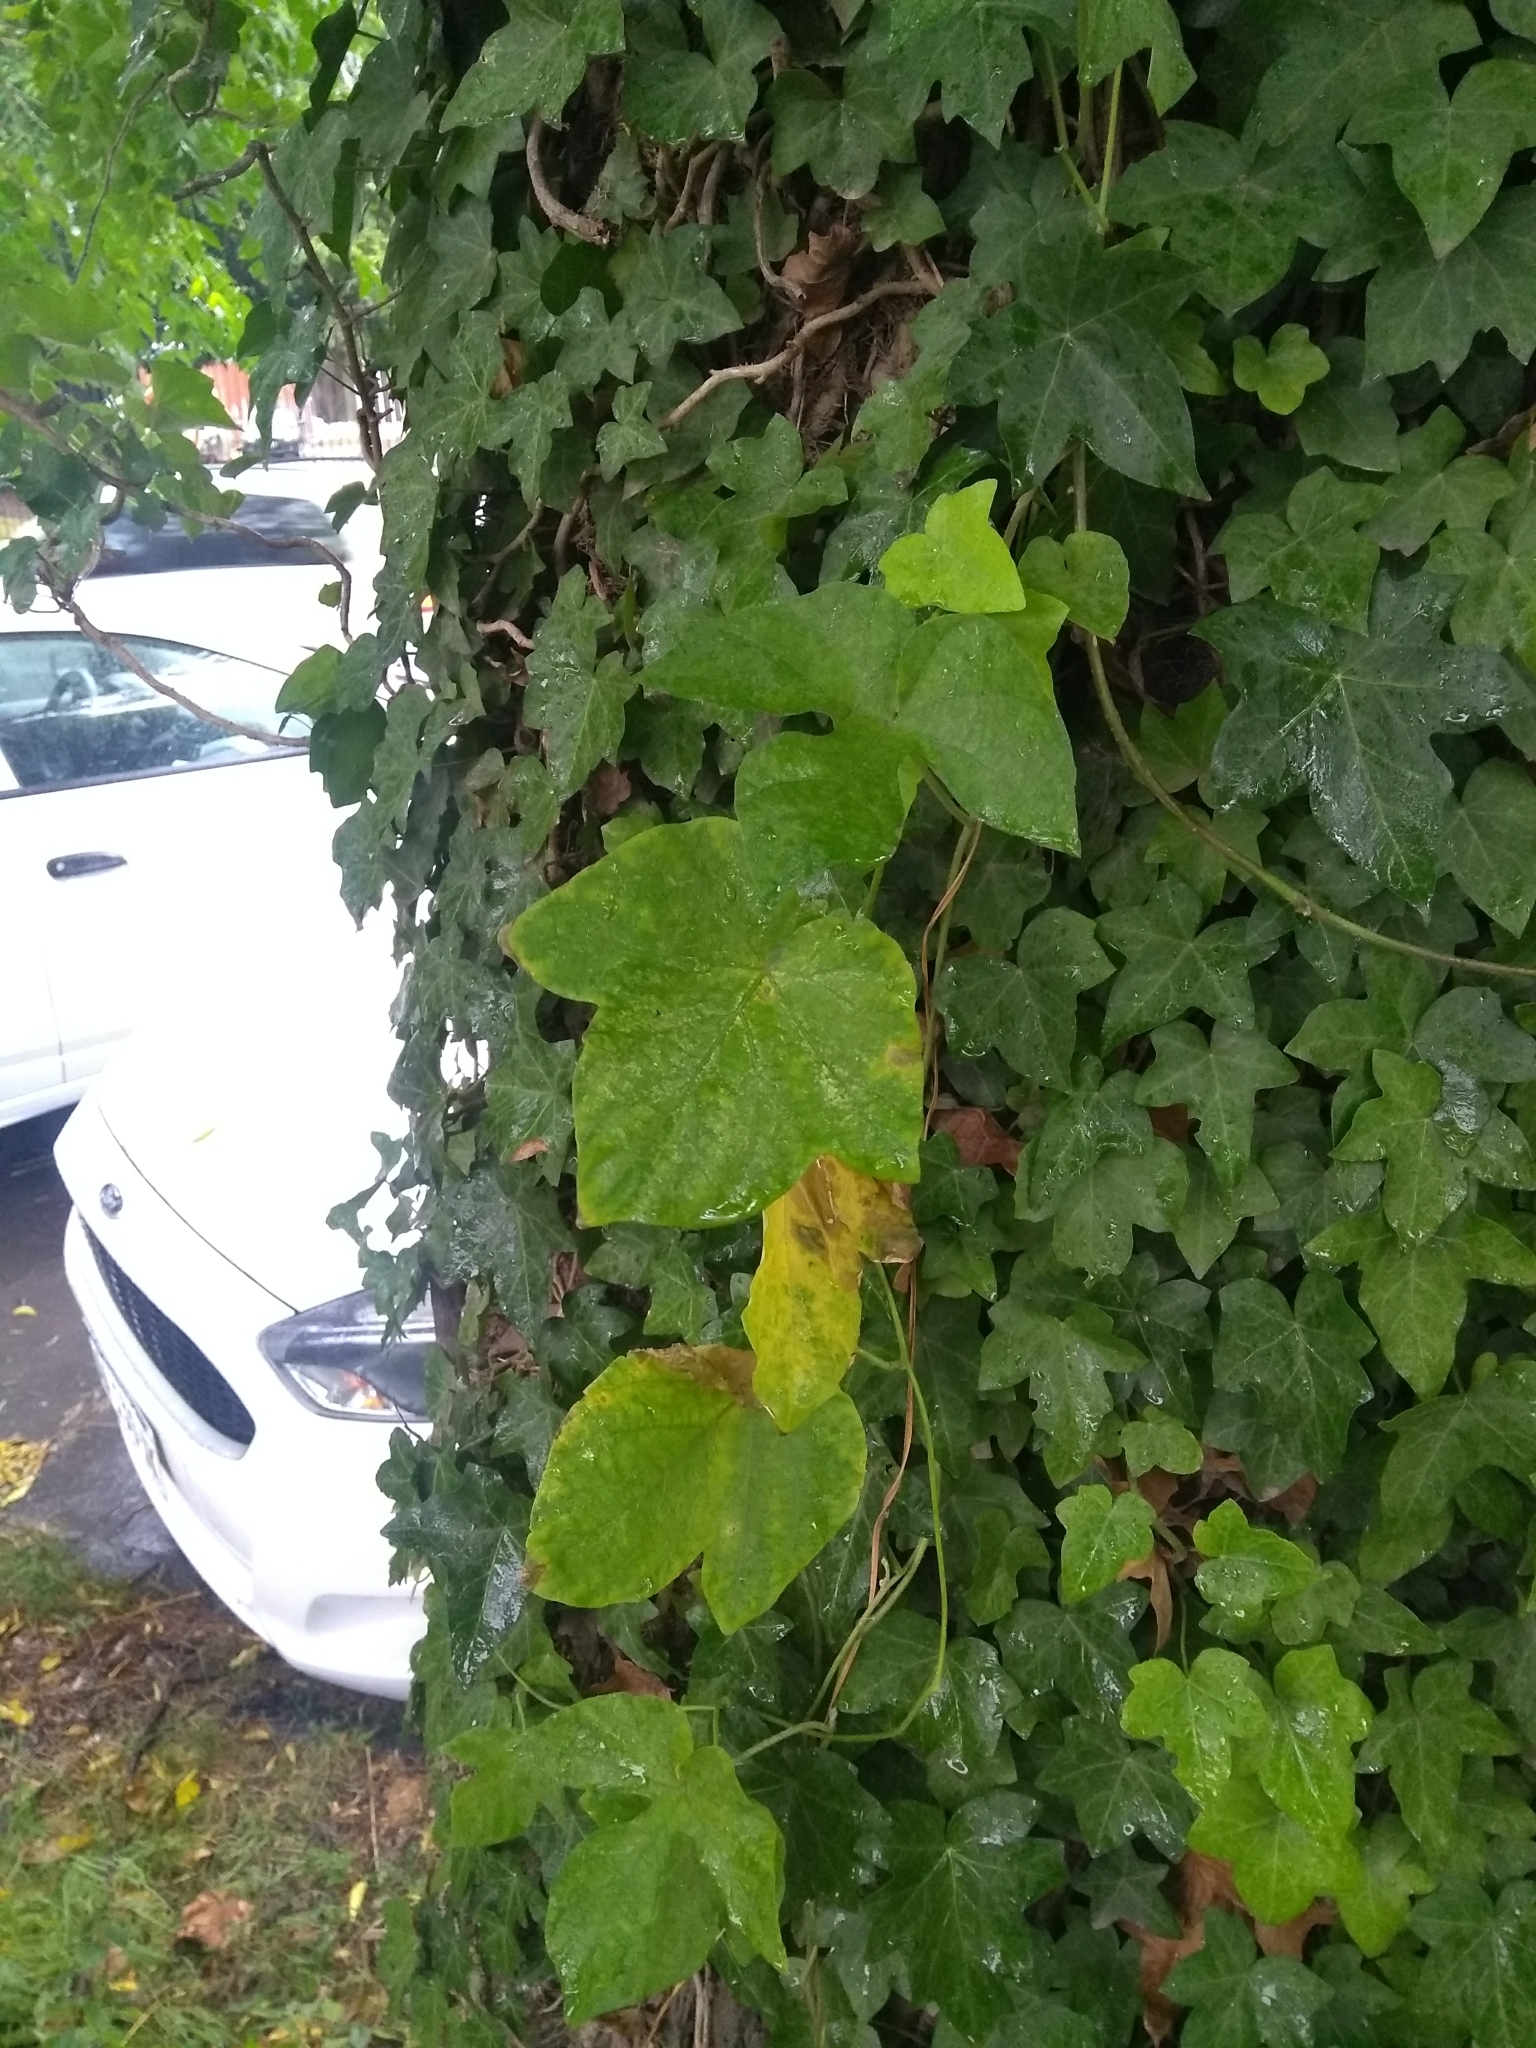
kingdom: Plantae
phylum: Tracheophyta
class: Magnoliopsida
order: Apiales
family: Araliaceae
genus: Hedera
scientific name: Hedera helix
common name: Ivy
